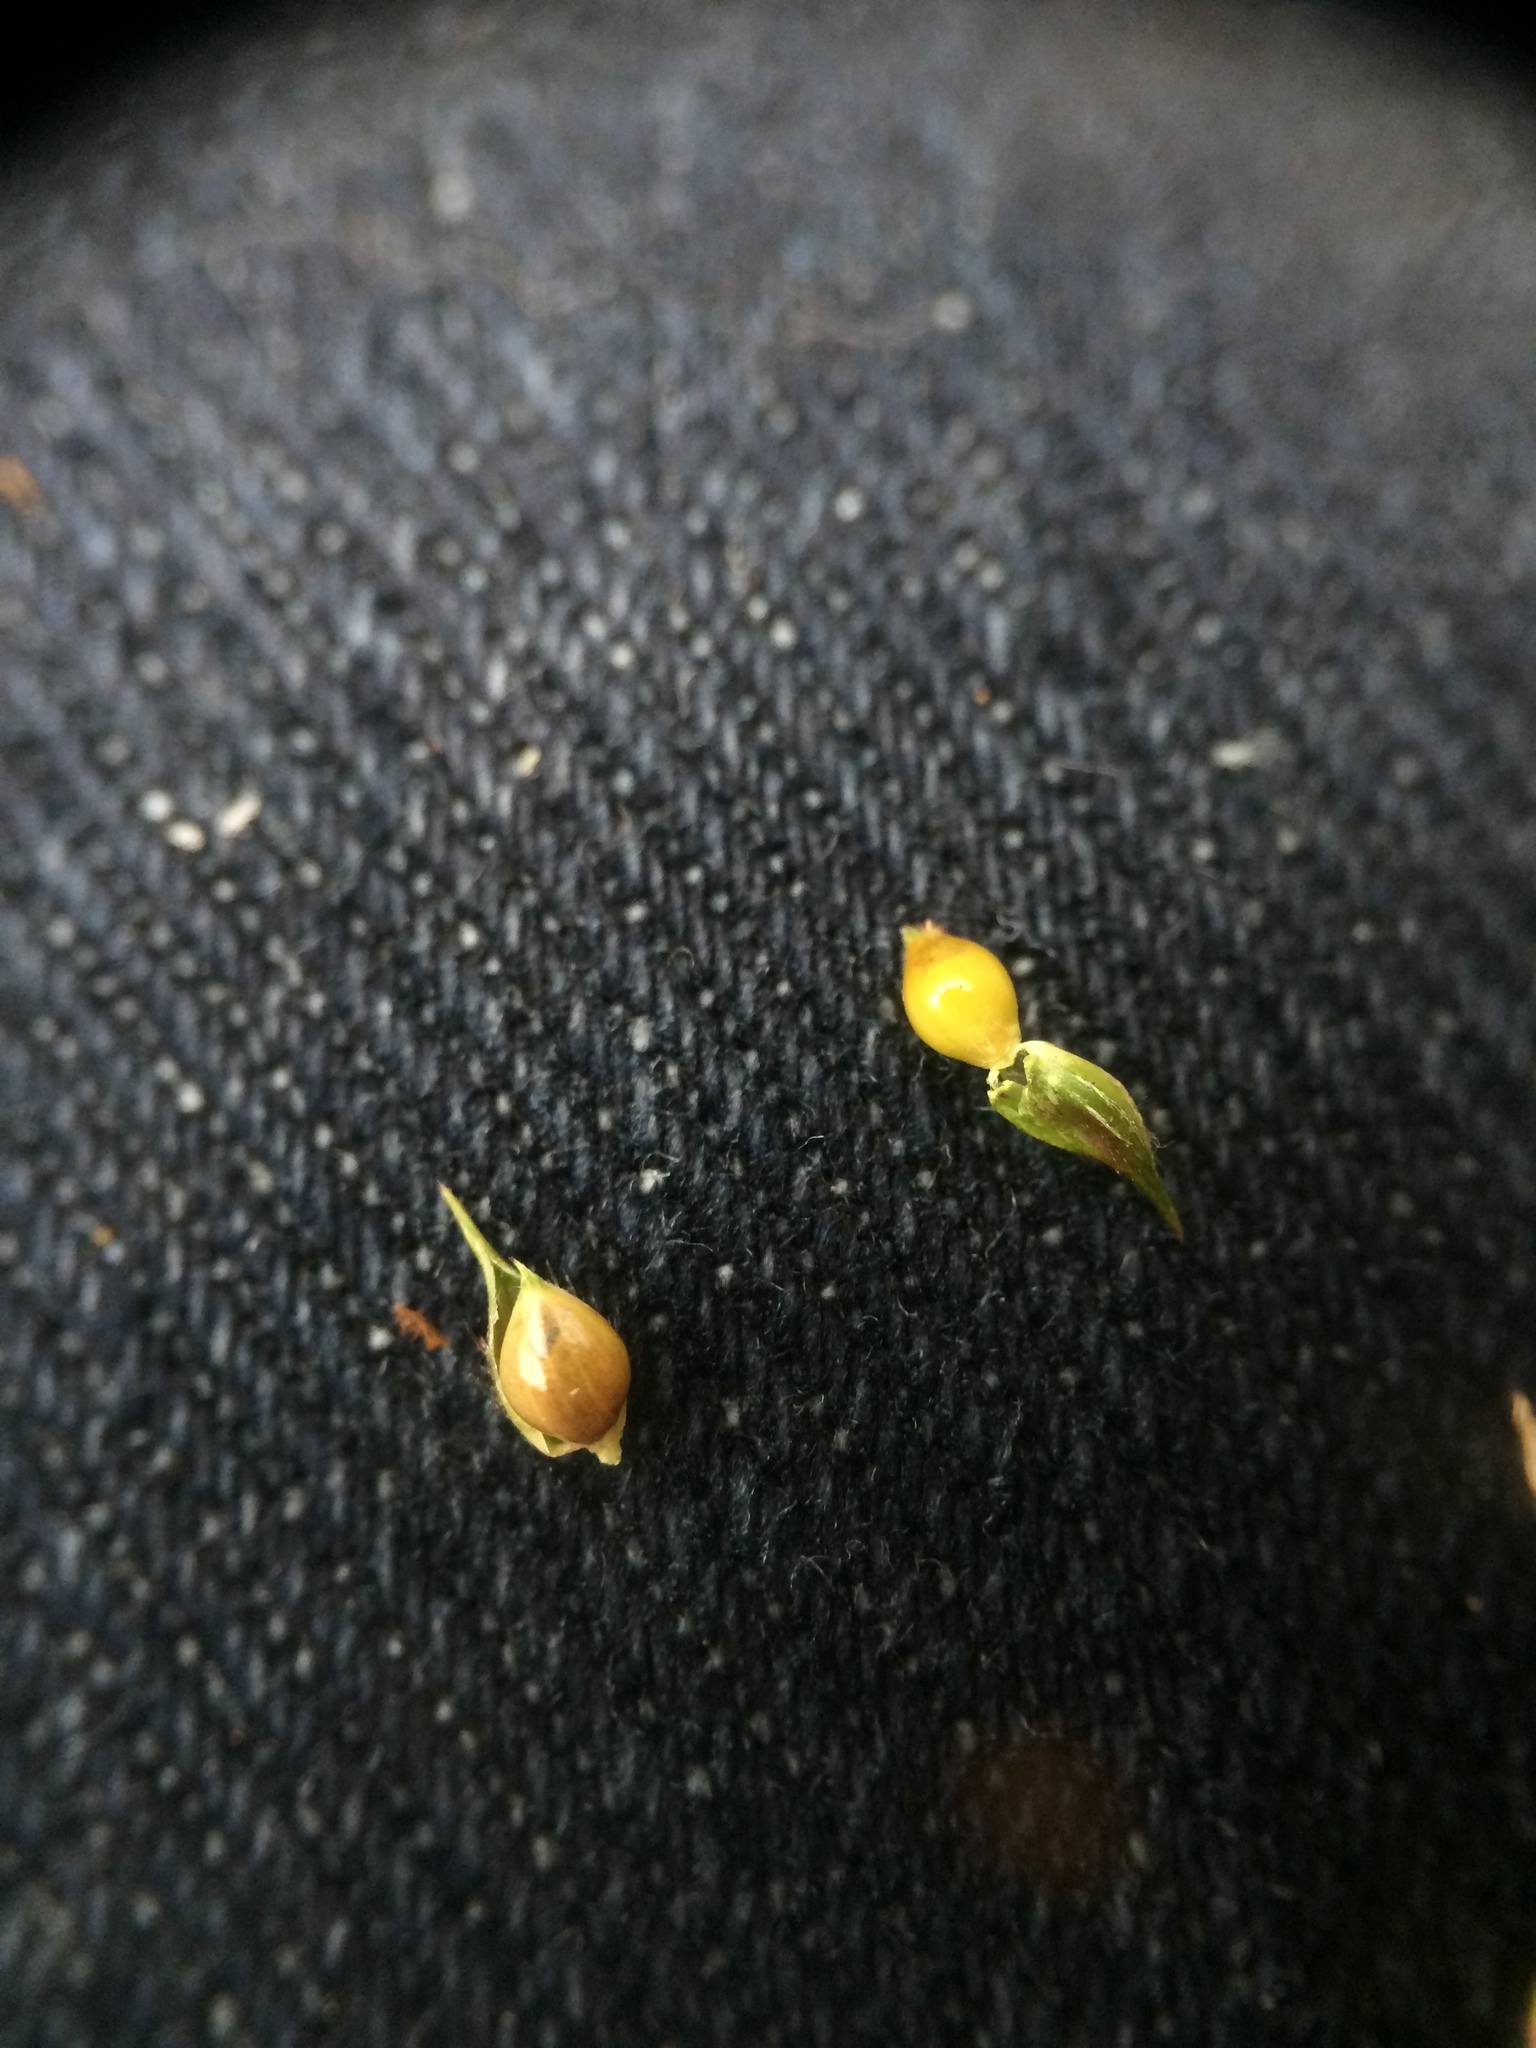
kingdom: Plantae
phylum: Tracheophyta
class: Liliopsida
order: Poales
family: Poaceae
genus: Echinochloa
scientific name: Echinochloa crus-galli
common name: Cockspur
